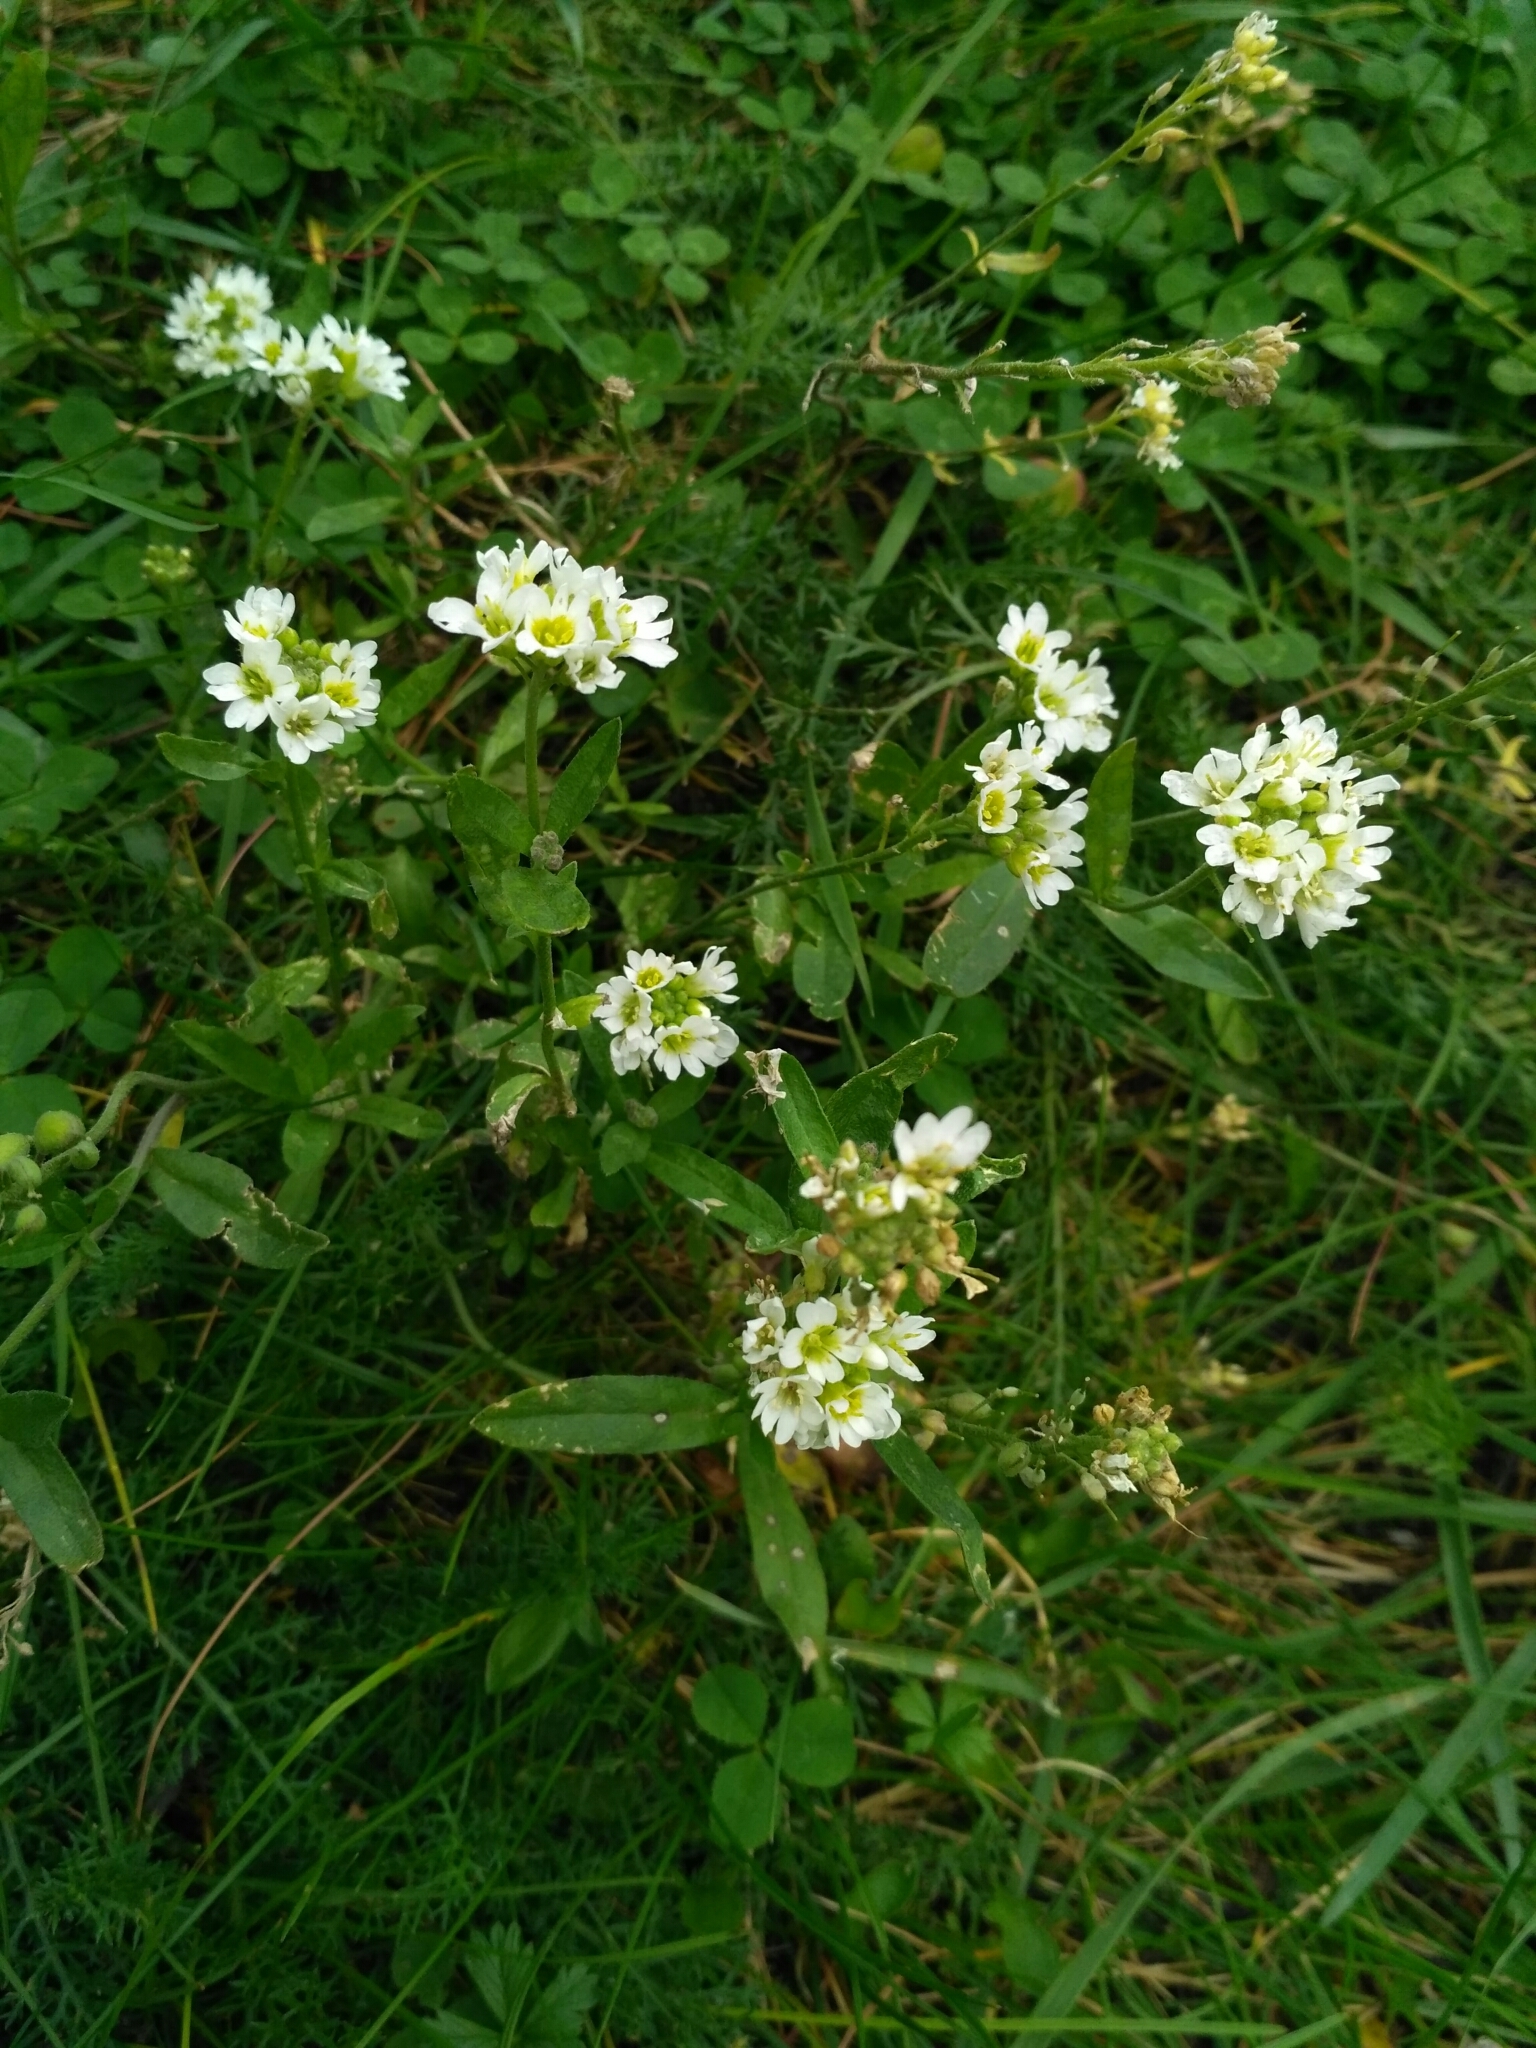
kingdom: Plantae
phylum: Tracheophyta
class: Magnoliopsida
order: Brassicales
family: Brassicaceae
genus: Berteroa
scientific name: Berteroa incana
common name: Hoary alison
